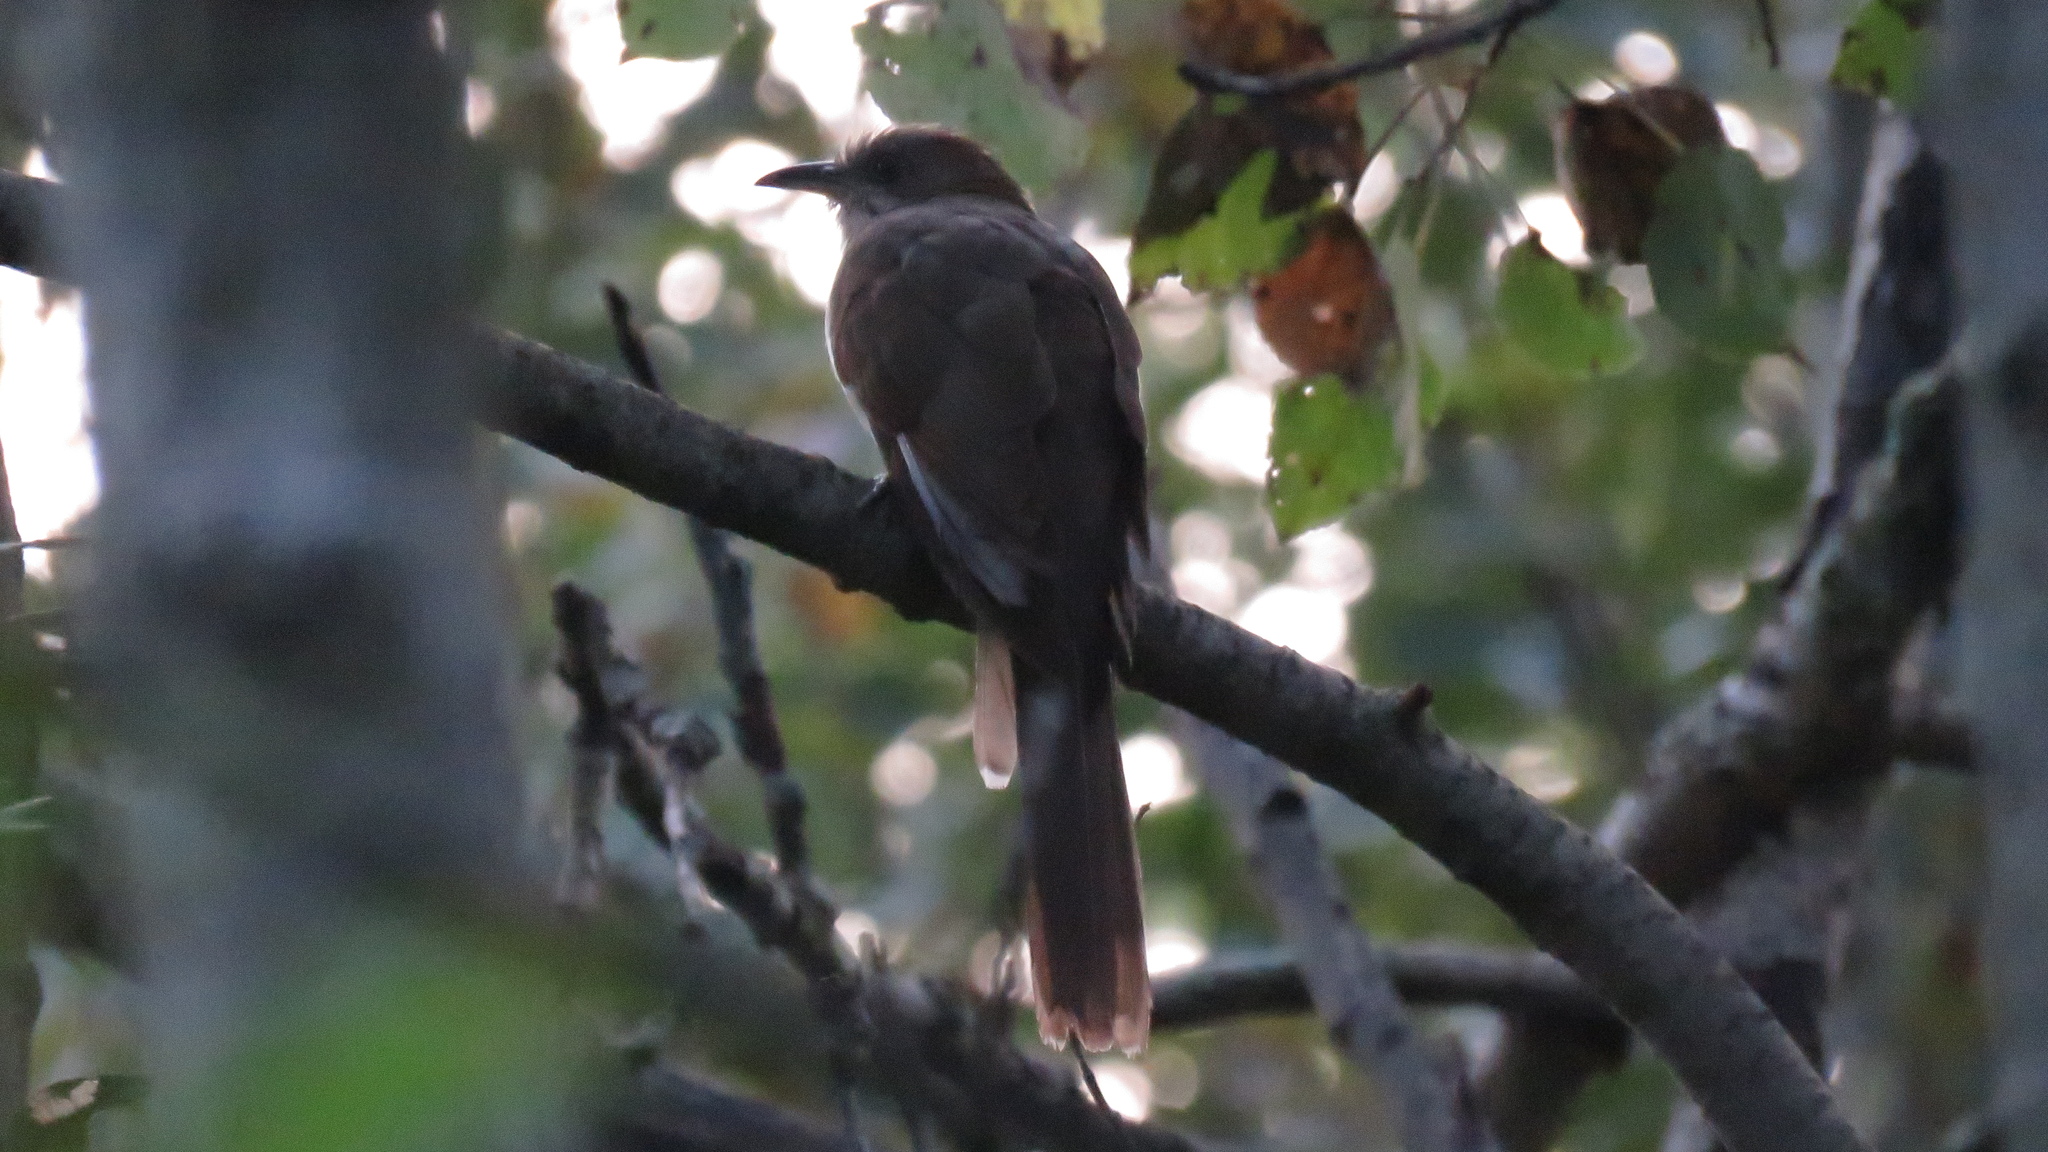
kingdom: Animalia
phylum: Chordata
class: Aves
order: Cuculiformes
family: Cuculidae
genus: Coccyzus
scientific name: Coccyzus erythropthalmus
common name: Black-billed cuckoo
